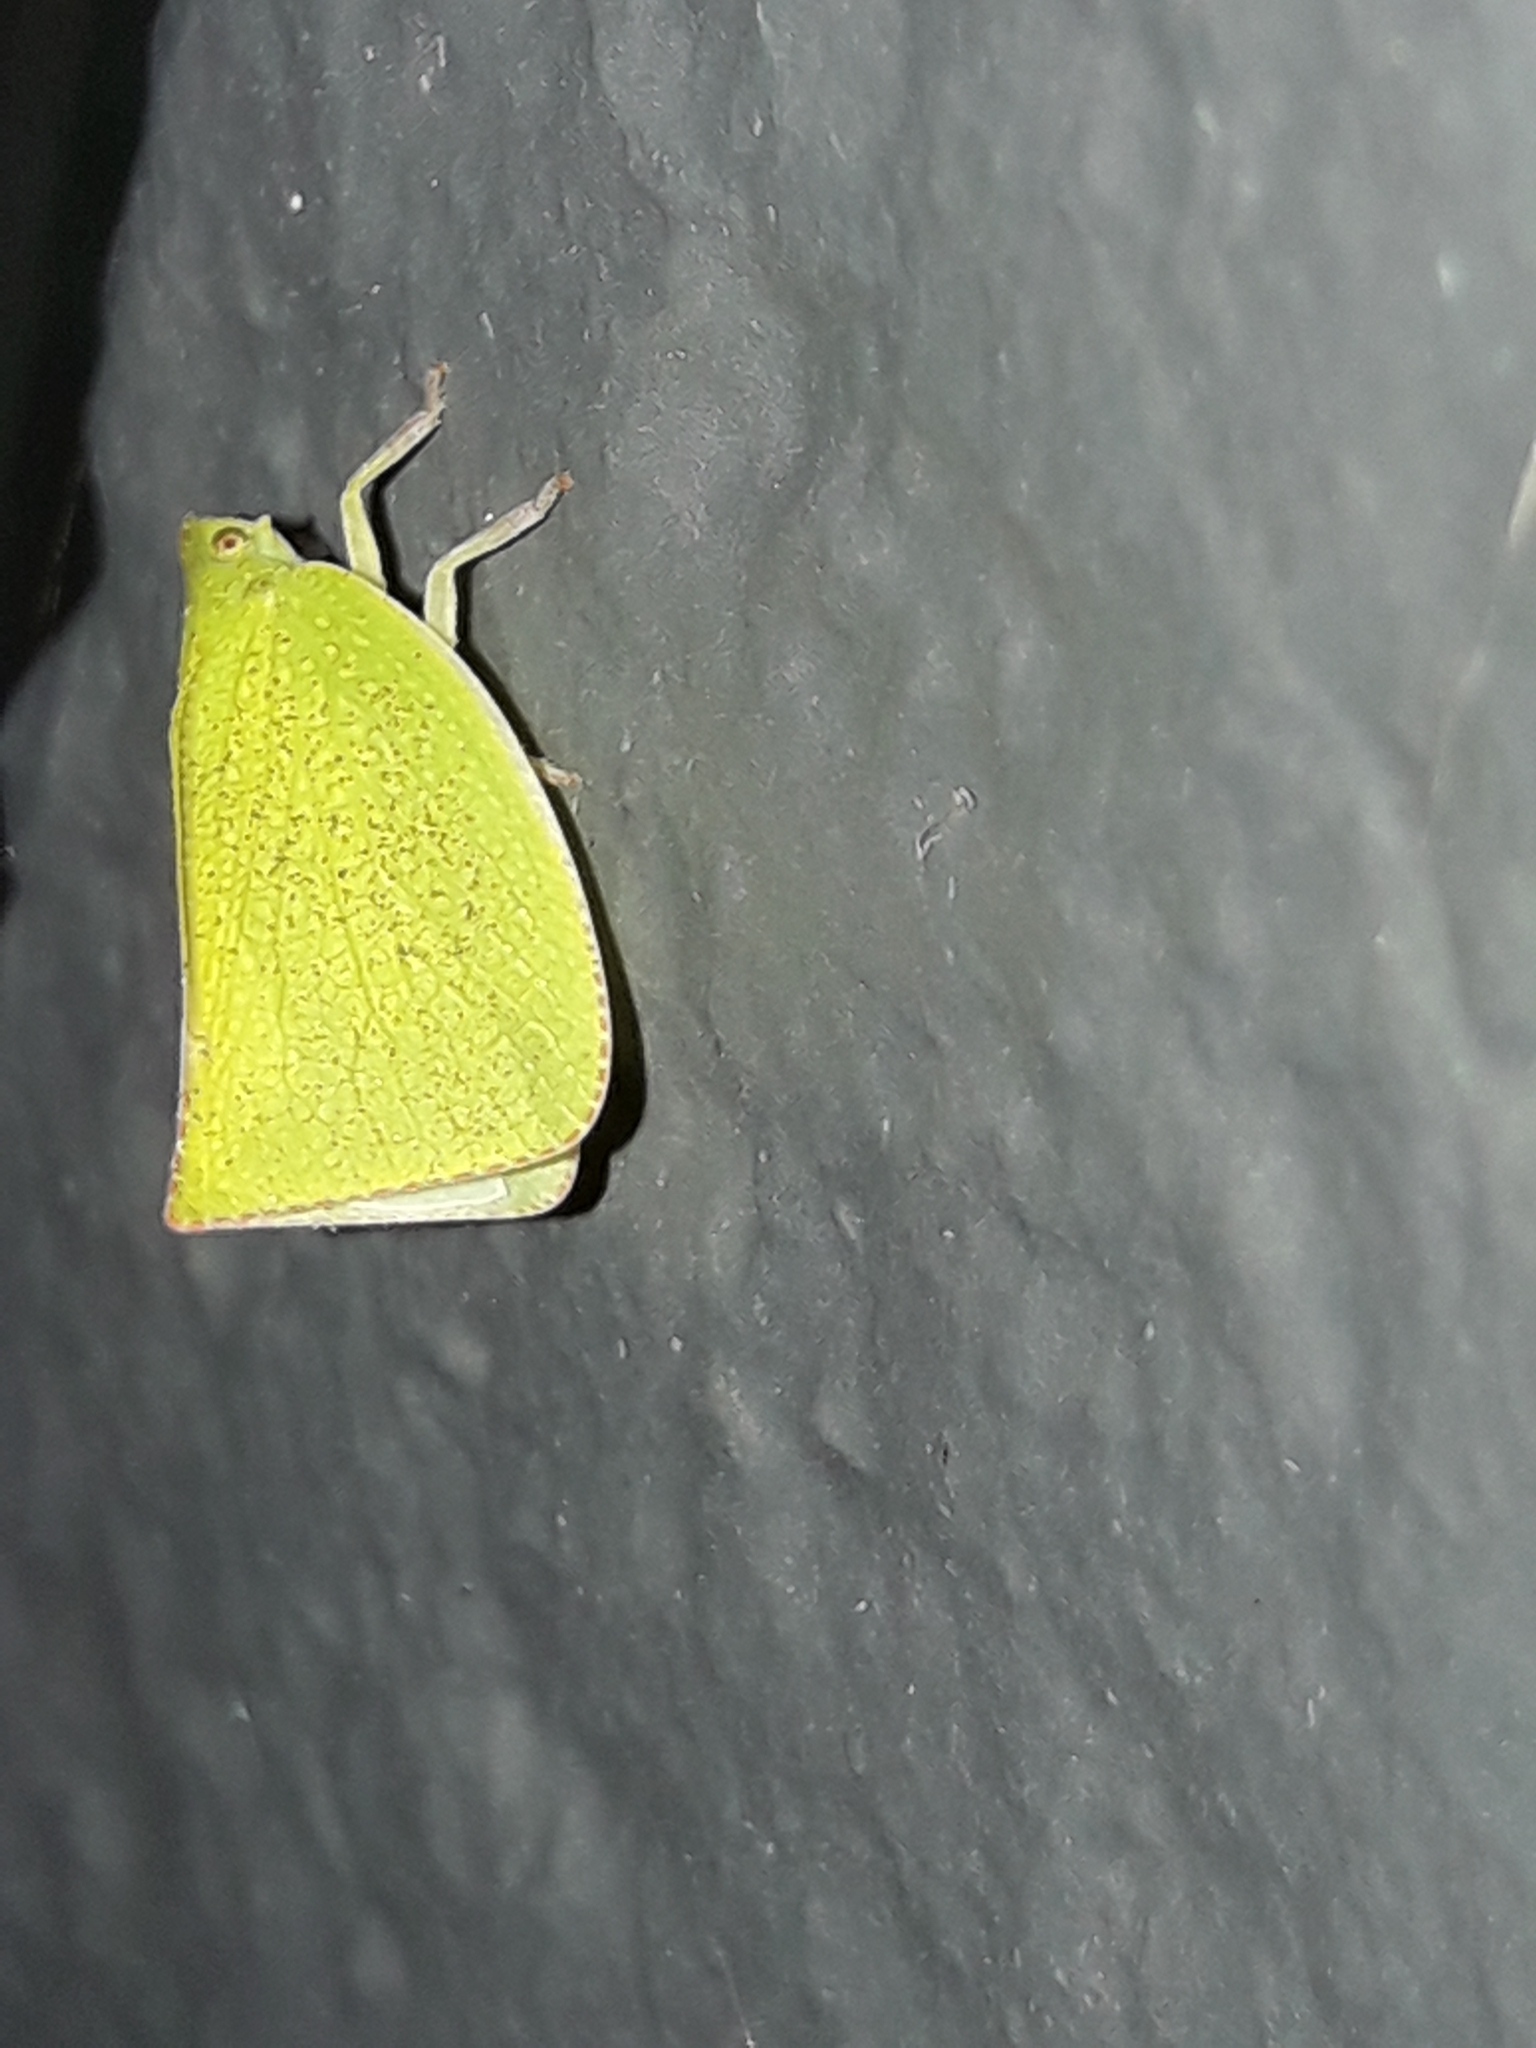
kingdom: Animalia
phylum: Arthropoda
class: Insecta
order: Hemiptera
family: Flatidae
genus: Siphanta
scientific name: Siphanta acuta
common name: Torpedo bug
